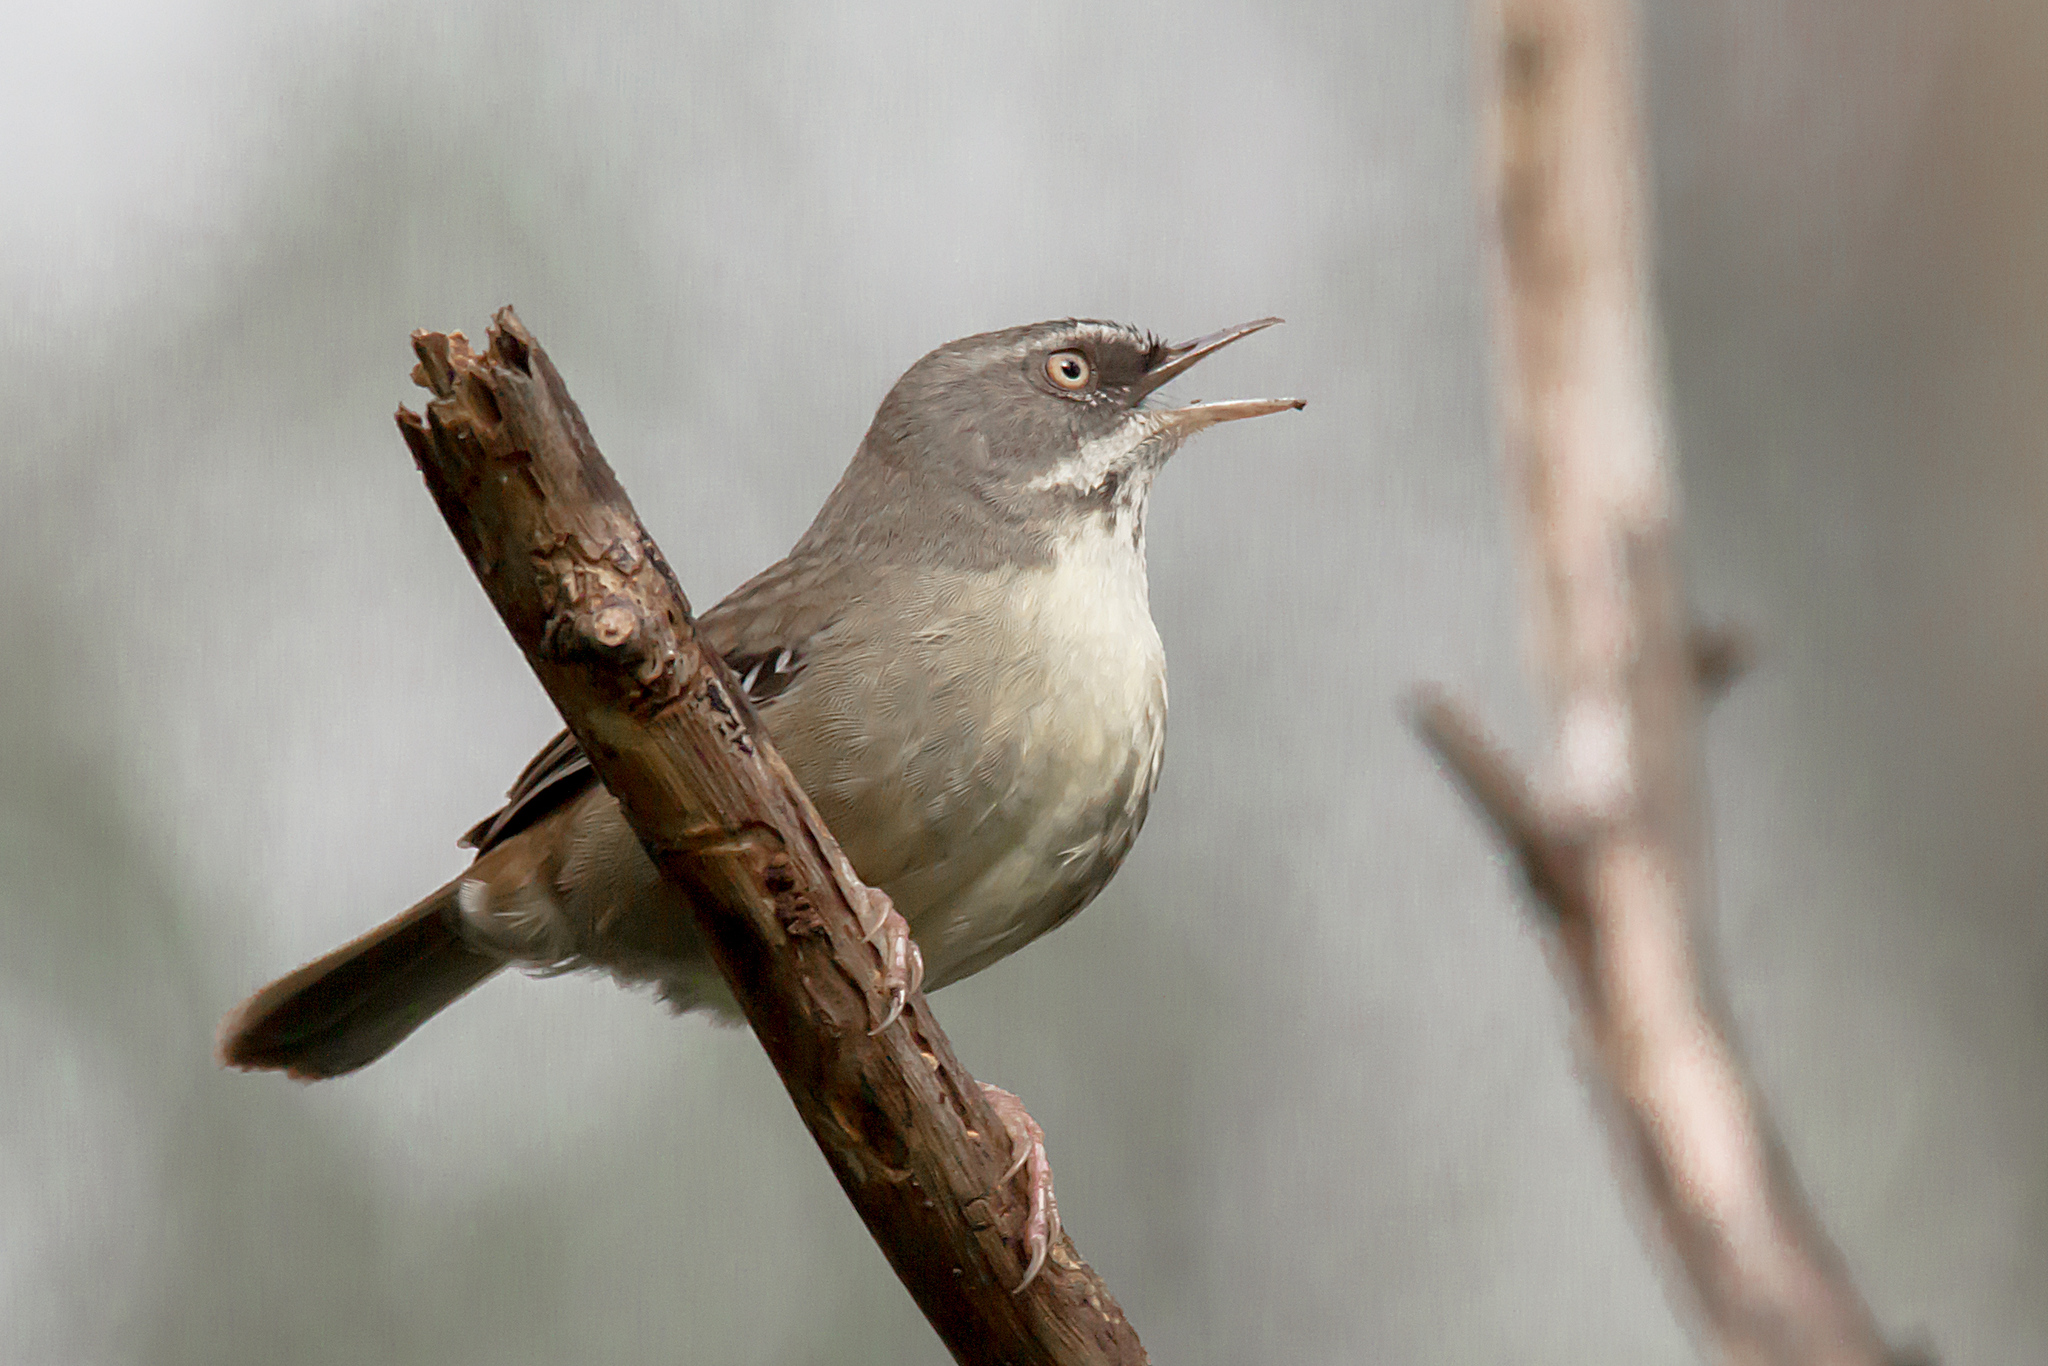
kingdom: Animalia
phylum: Chordata
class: Aves
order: Passeriformes
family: Acanthizidae
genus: Sericornis
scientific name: Sericornis frontalis
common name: White-browed scrubwren
